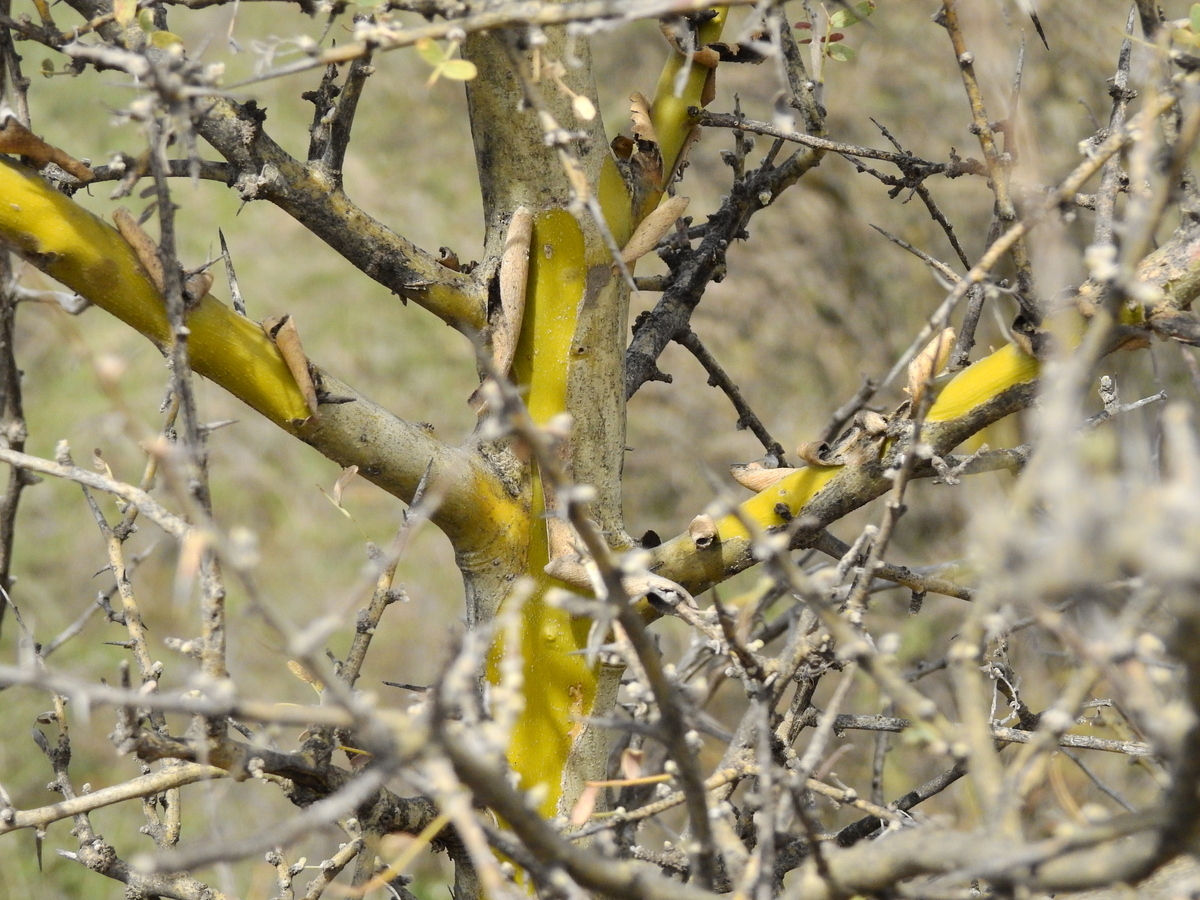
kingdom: Plantae
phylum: Tracheophyta
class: Magnoliopsida
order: Fabales
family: Fabaceae
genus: Geoffroea
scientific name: Geoffroea decorticans
